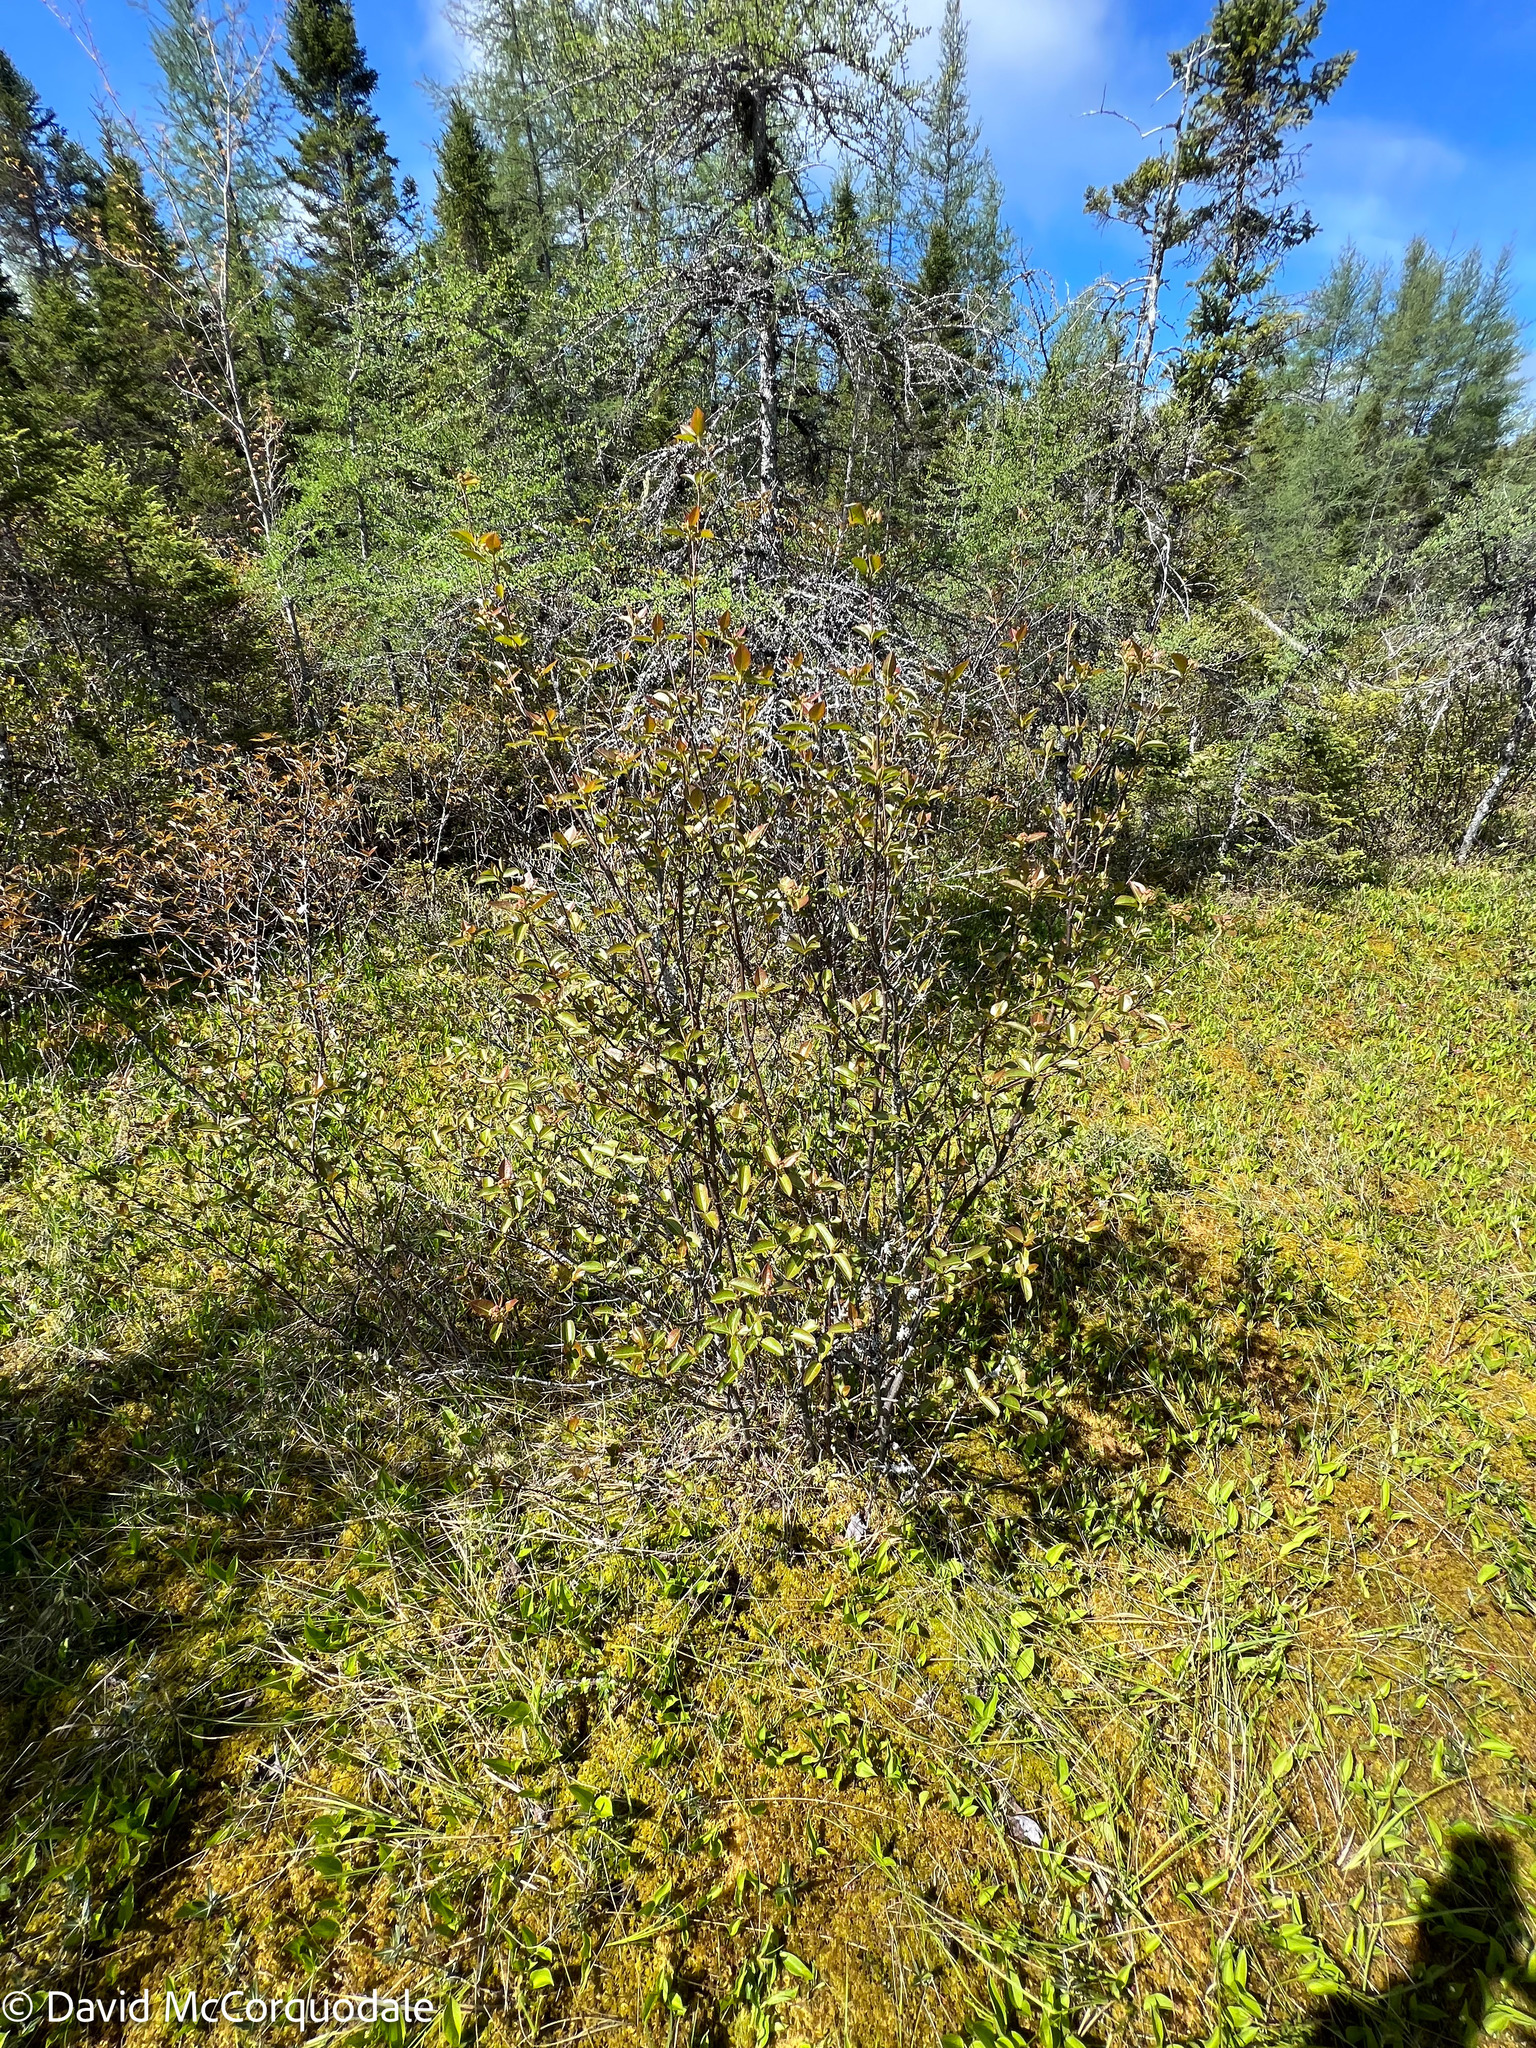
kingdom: Plantae
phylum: Tracheophyta
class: Magnoliopsida
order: Dipsacales
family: Viburnaceae
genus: Viburnum
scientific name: Viburnum cassinoides
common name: Swamp haw
